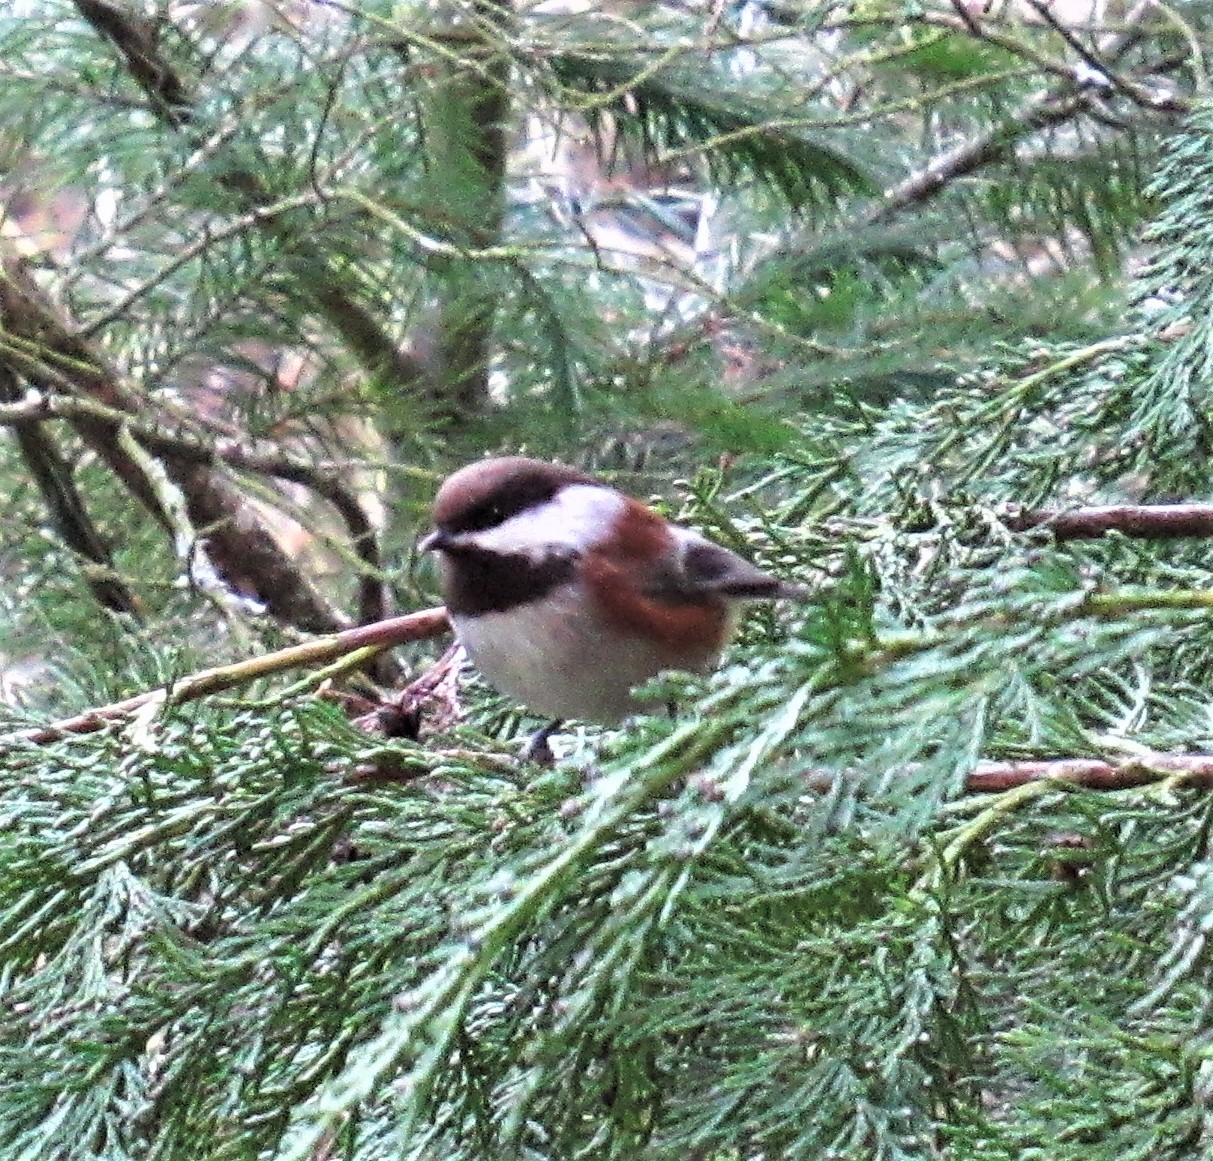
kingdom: Animalia
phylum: Chordata
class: Aves
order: Passeriformes
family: Paridae
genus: Poecile
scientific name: Poecile rufescens
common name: Chestnut-backed chickadee
